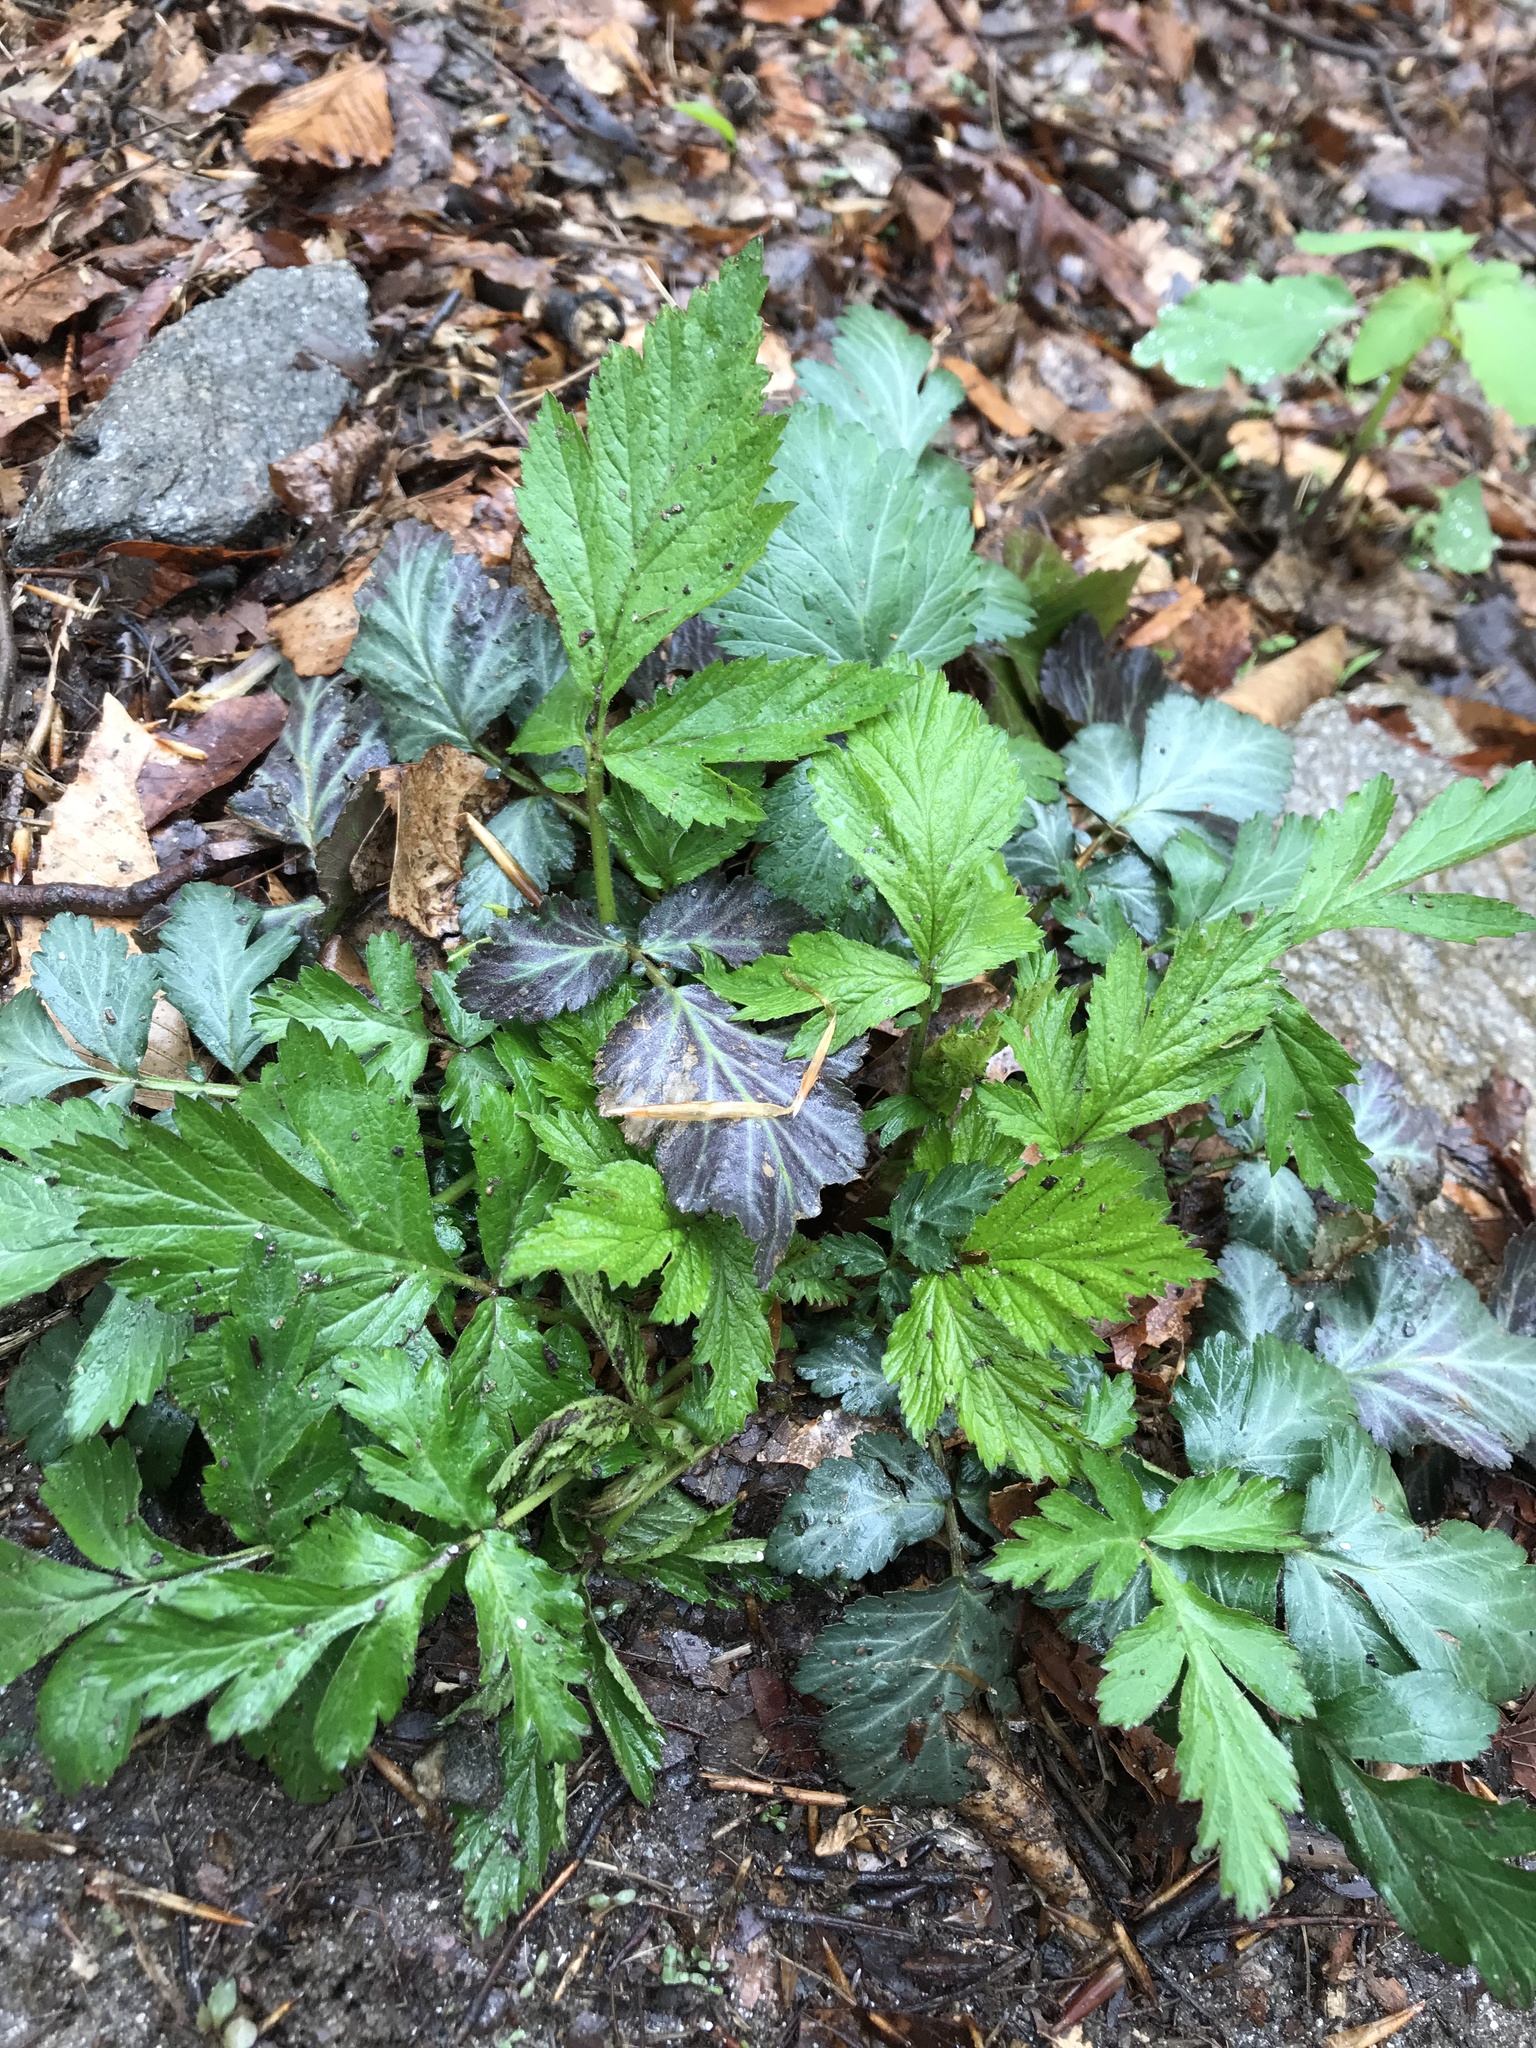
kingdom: Plantae
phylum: Tracheophyta
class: Magnoliopsida
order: Rosales
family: Rosaceae
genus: Geum
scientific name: Geum canadense
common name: White avens
